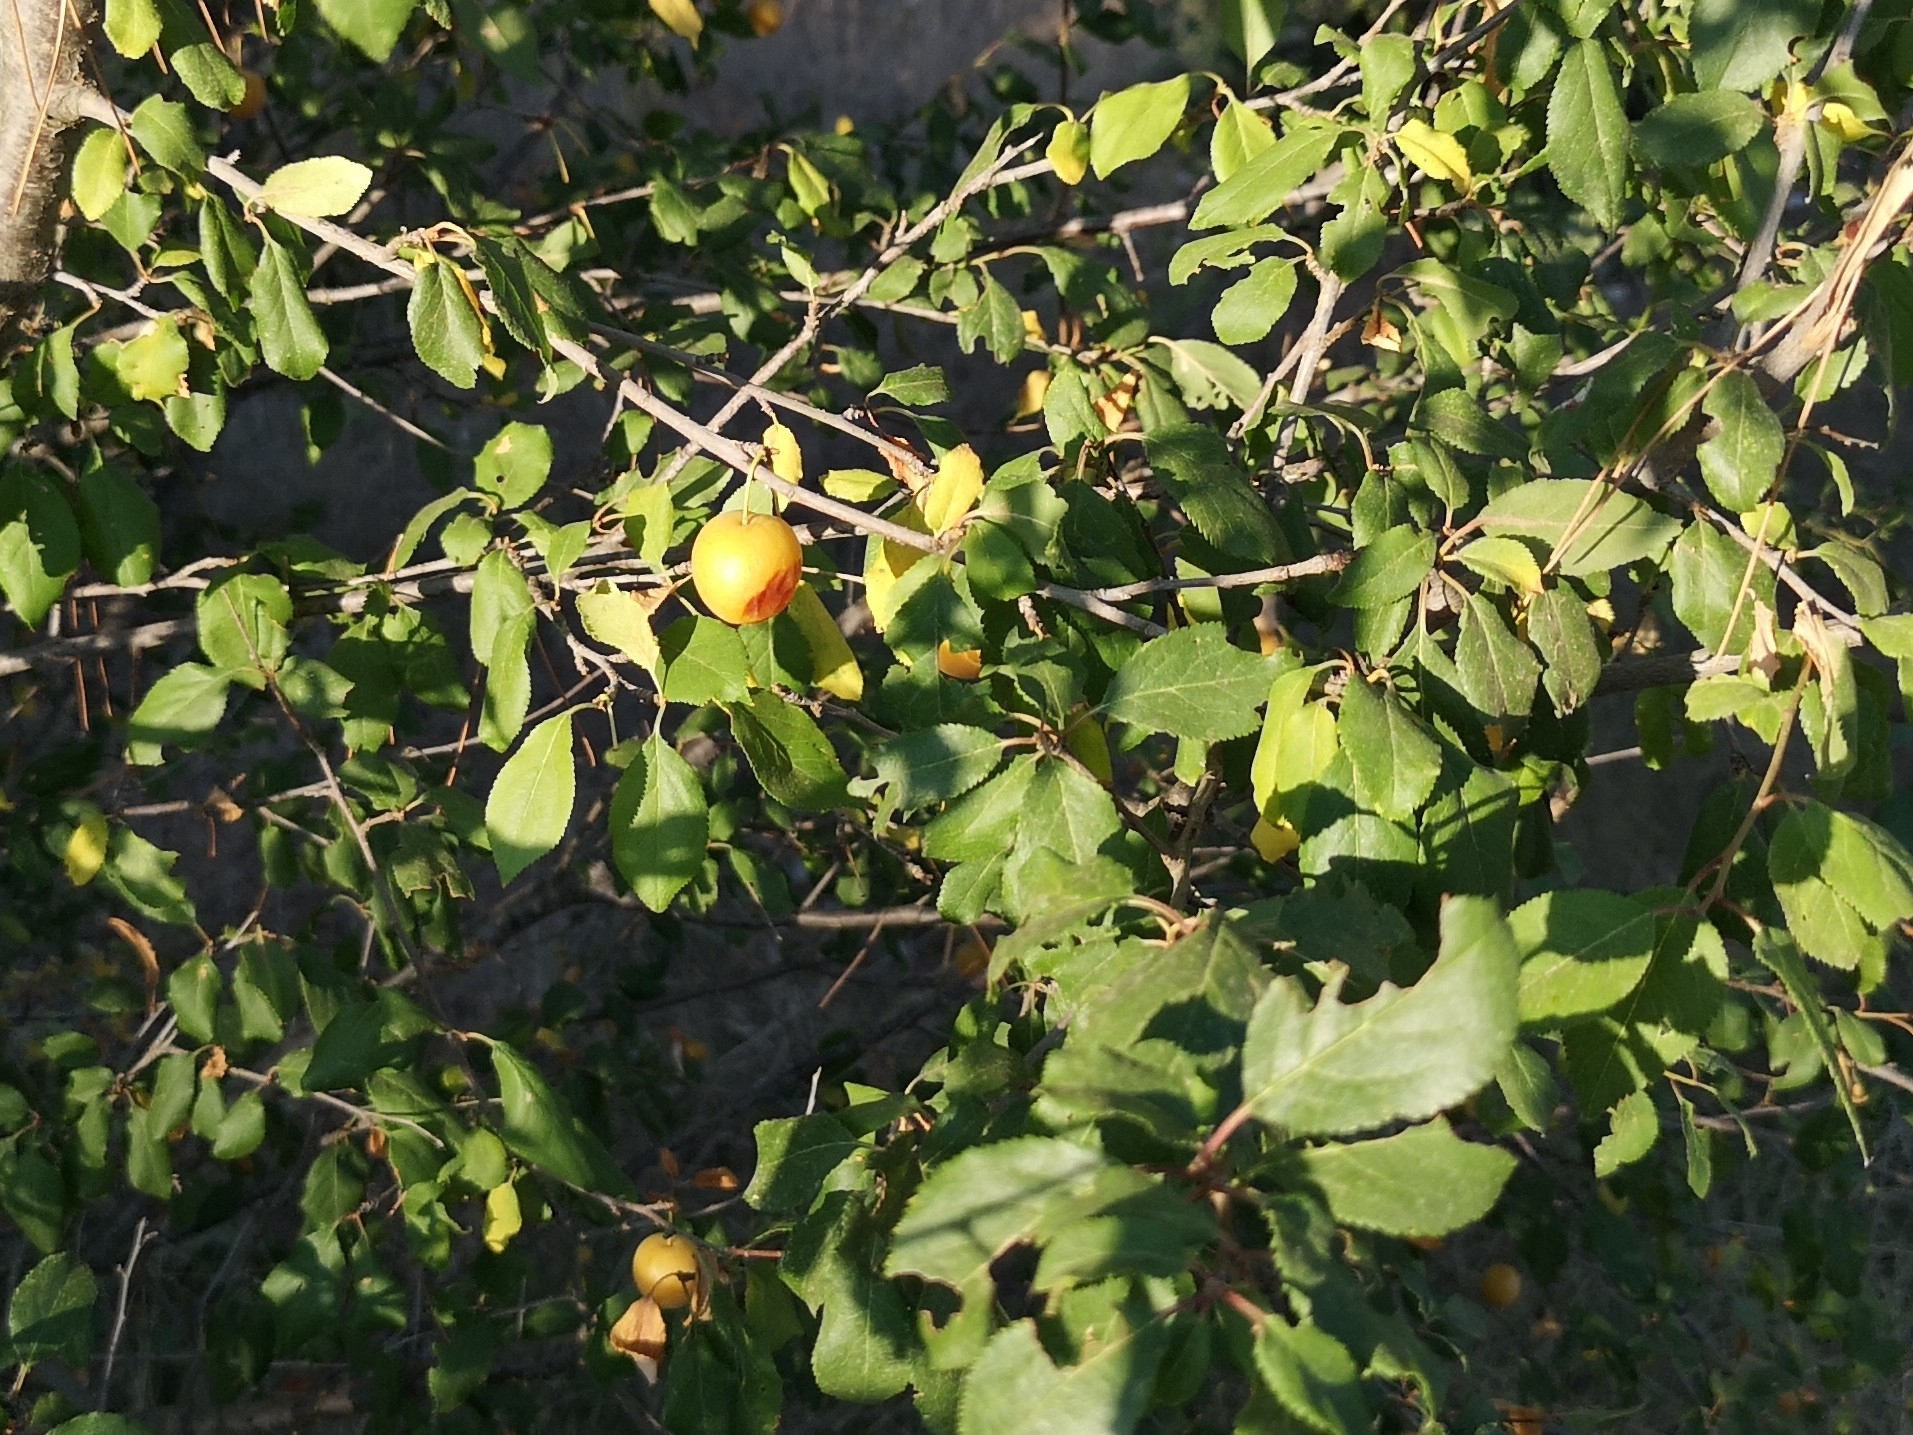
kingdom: Plantae
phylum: Tracheophyta
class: Magnoliopsida
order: Rosales
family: Rosaceae
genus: Prunus
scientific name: Prunus cerasifera
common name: Cherry plum
